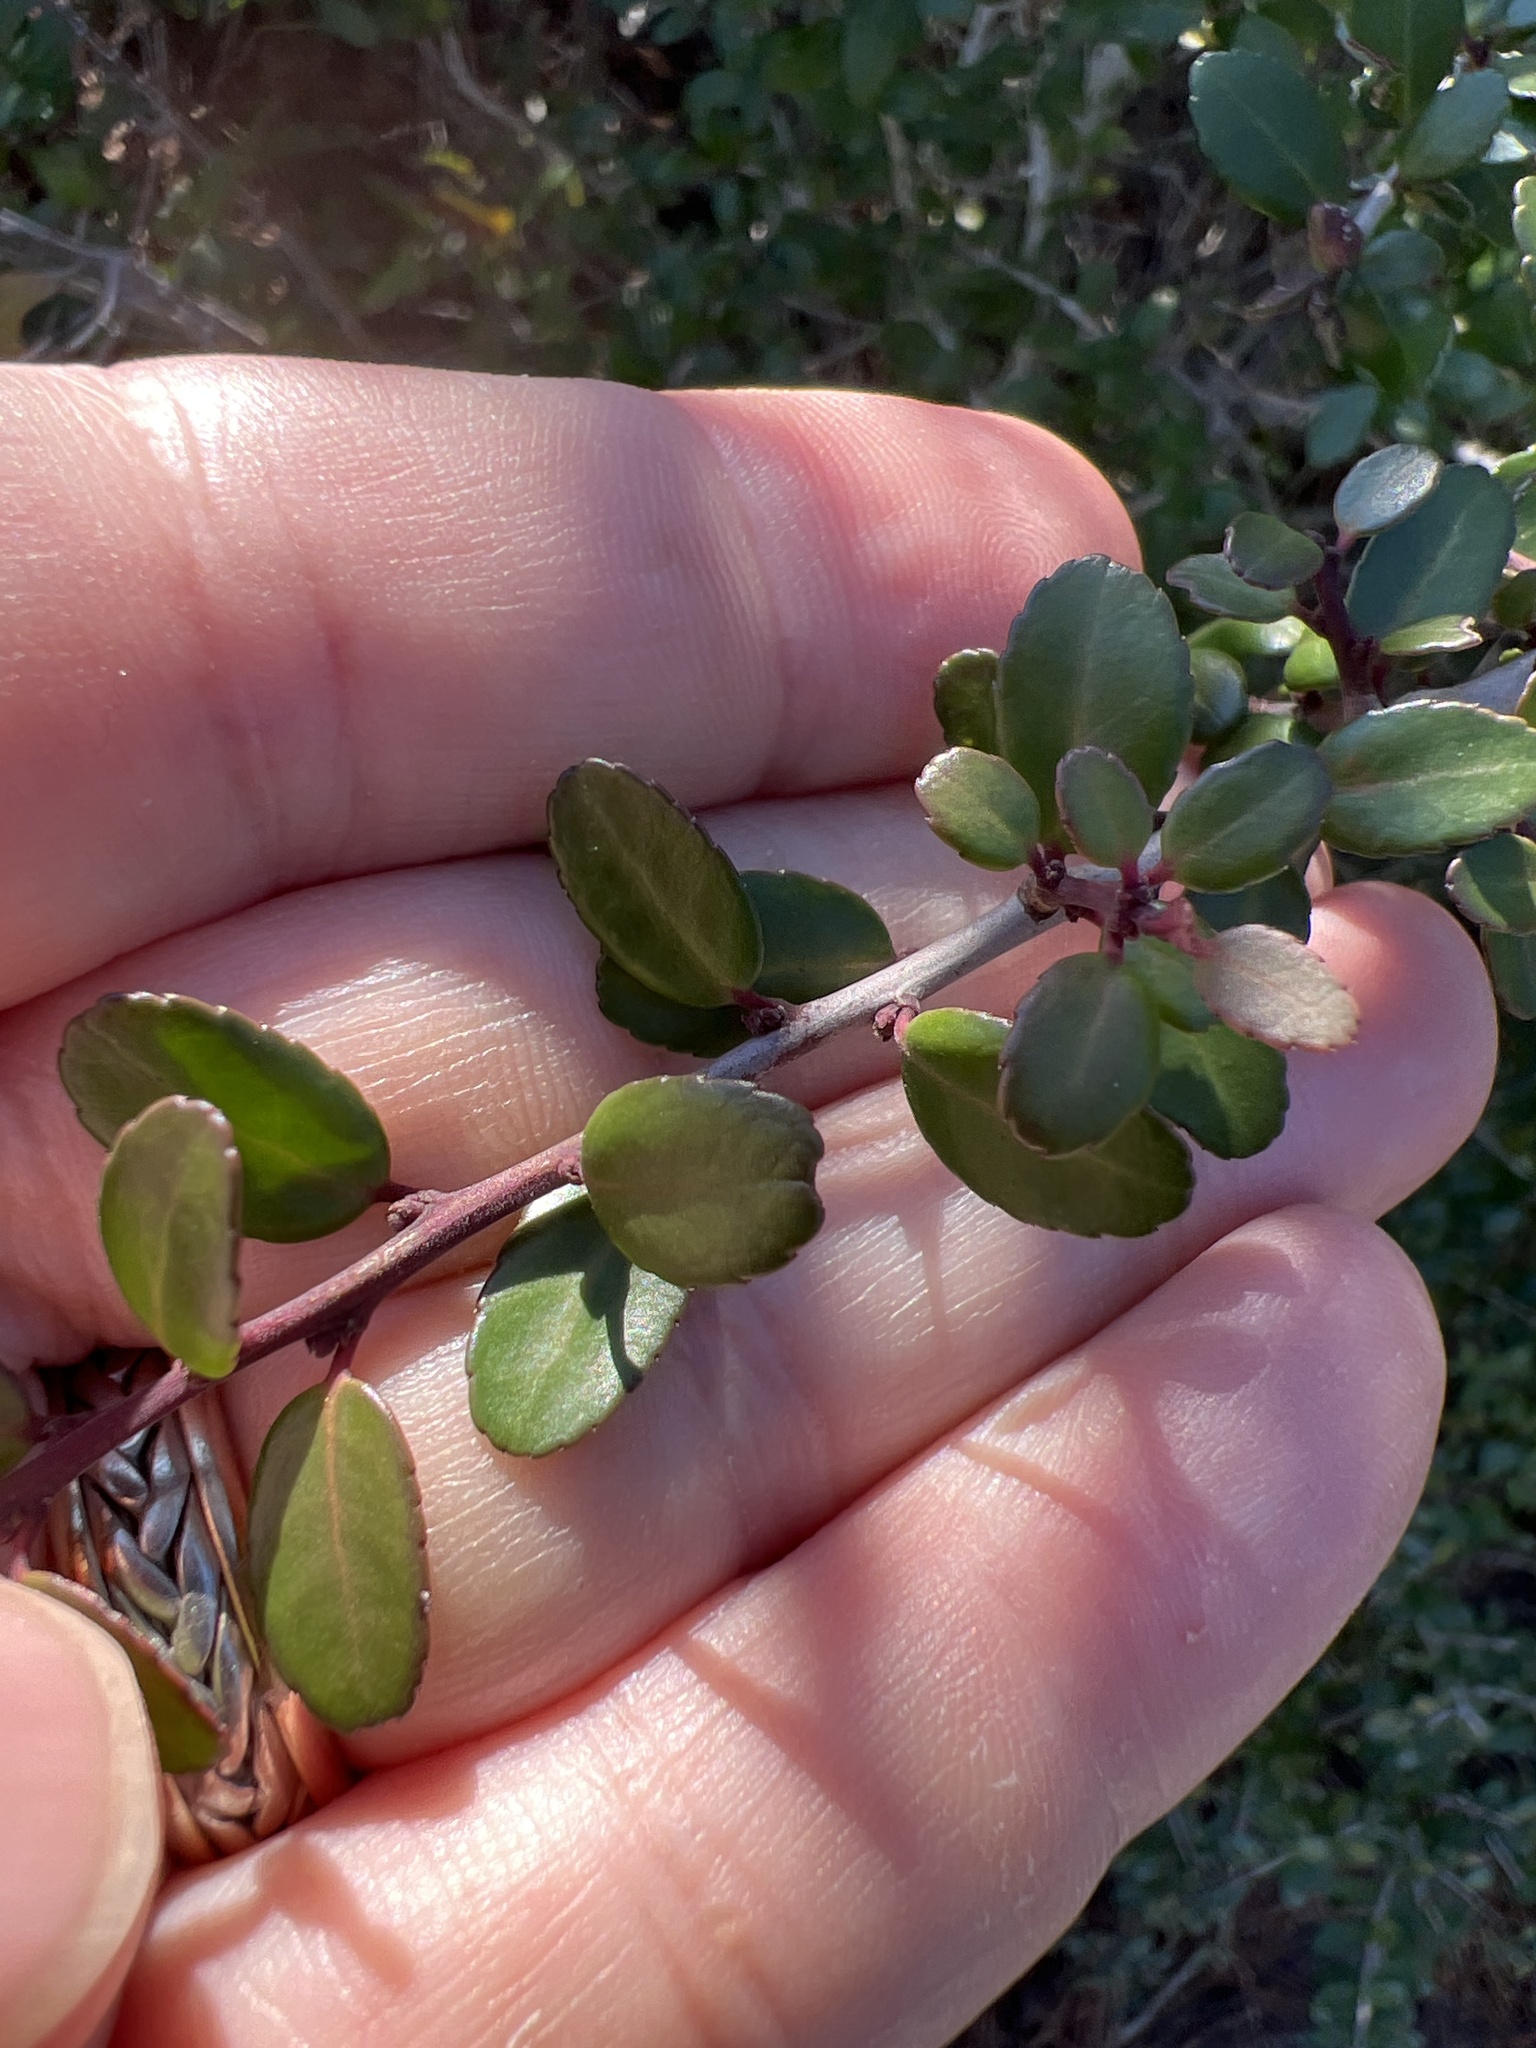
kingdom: Plantae
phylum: Tracheophyta
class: Magnoliopsida
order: Aquifoliales
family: Aquifoliaceae
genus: Ilex
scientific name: Ilex vomitoria
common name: Yaupon holly
